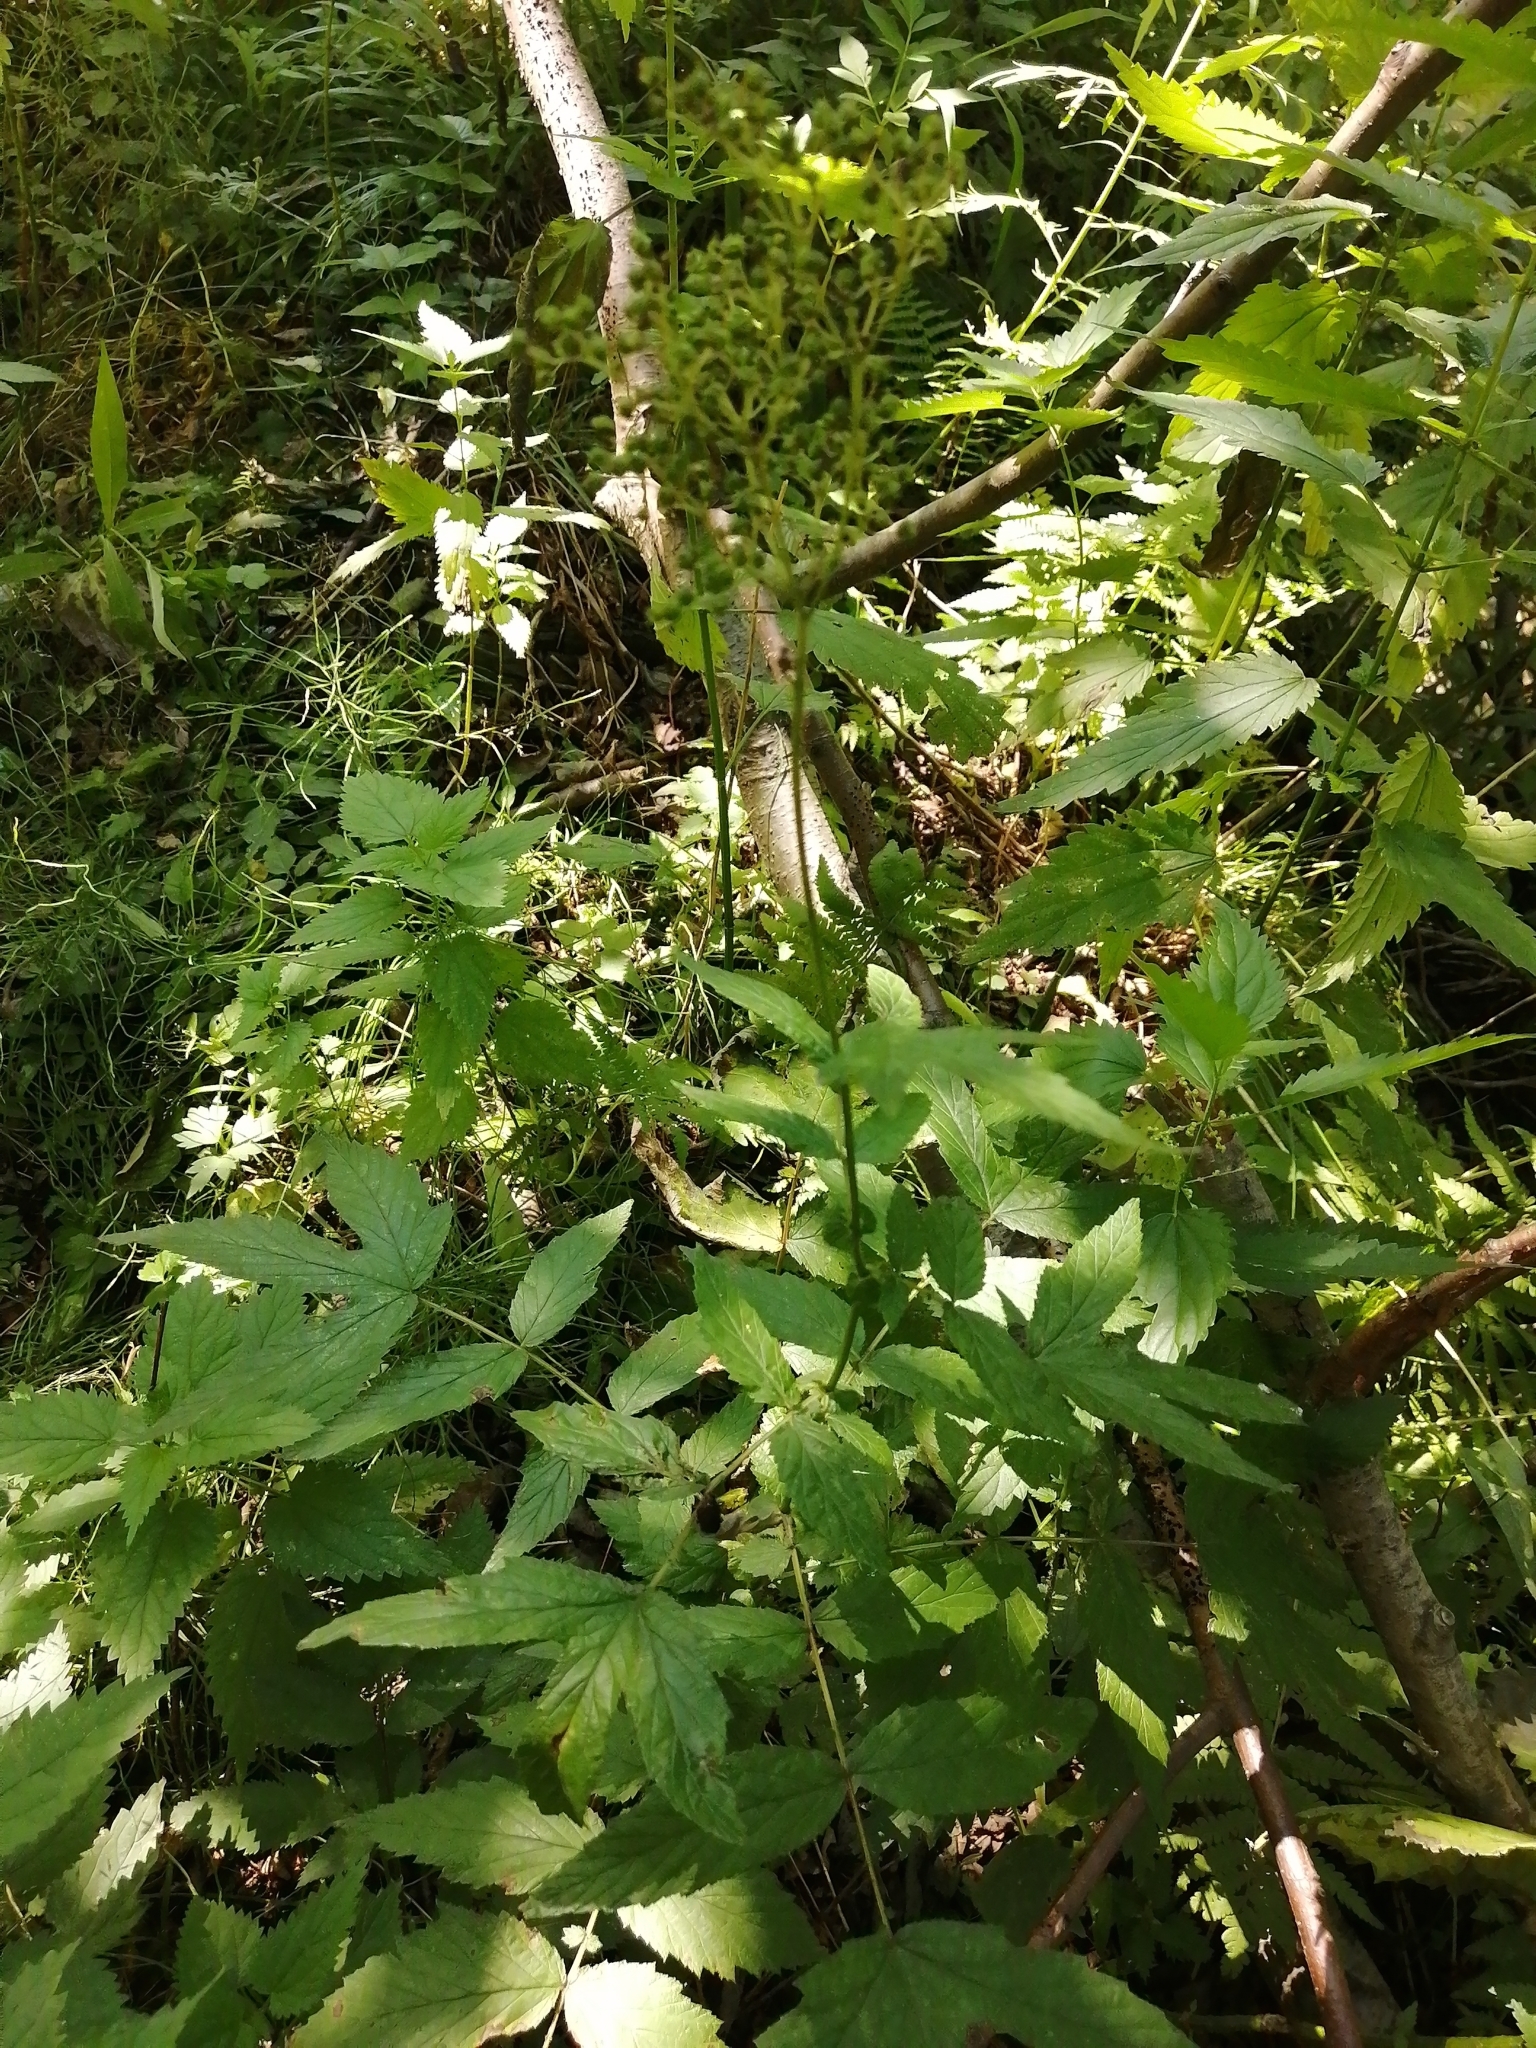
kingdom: Plantae
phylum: Tracheophyta
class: Magnoliopsida
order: Rosales
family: Rosaceae
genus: Filipendula
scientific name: Filipendula ulmaria
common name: Meadowsweet
